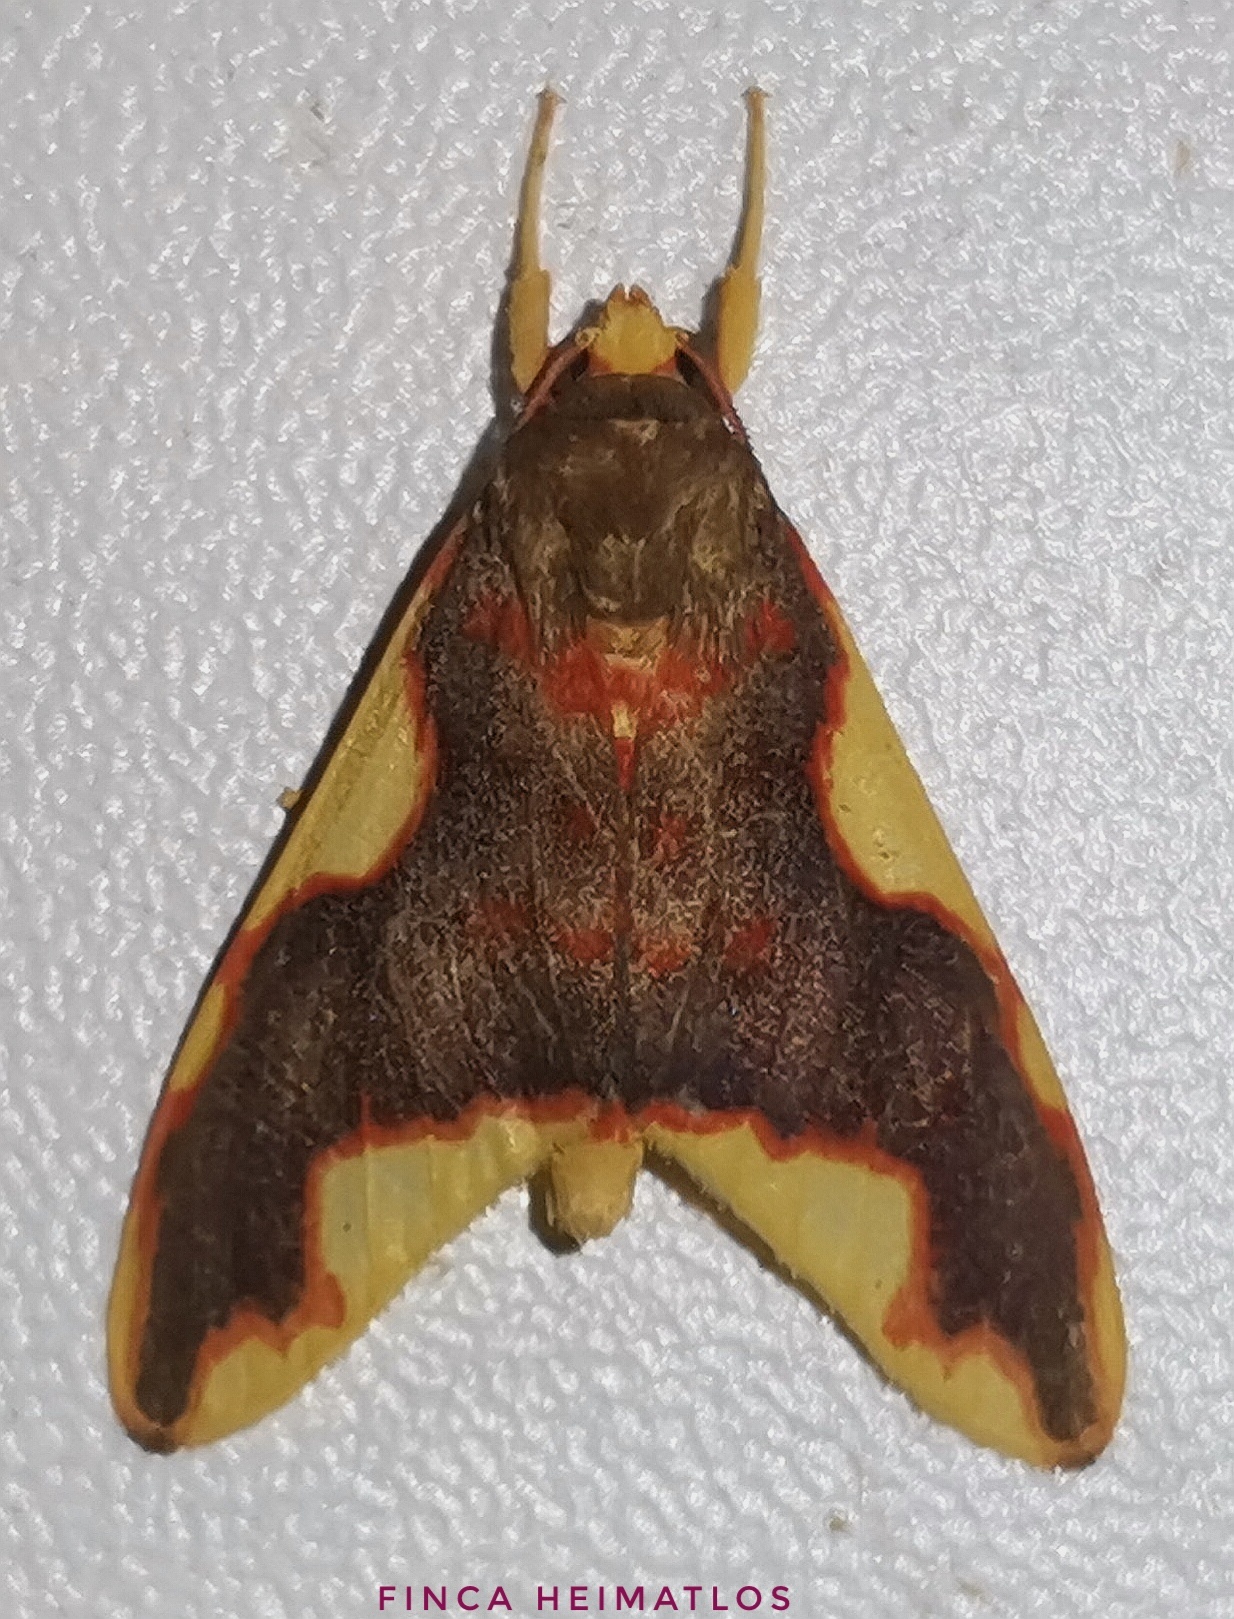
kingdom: Animalia
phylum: Arthropoda
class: Insecta
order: Lepidoptera
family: Erebidae
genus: Hyponerita
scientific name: Hyponerita declivis
